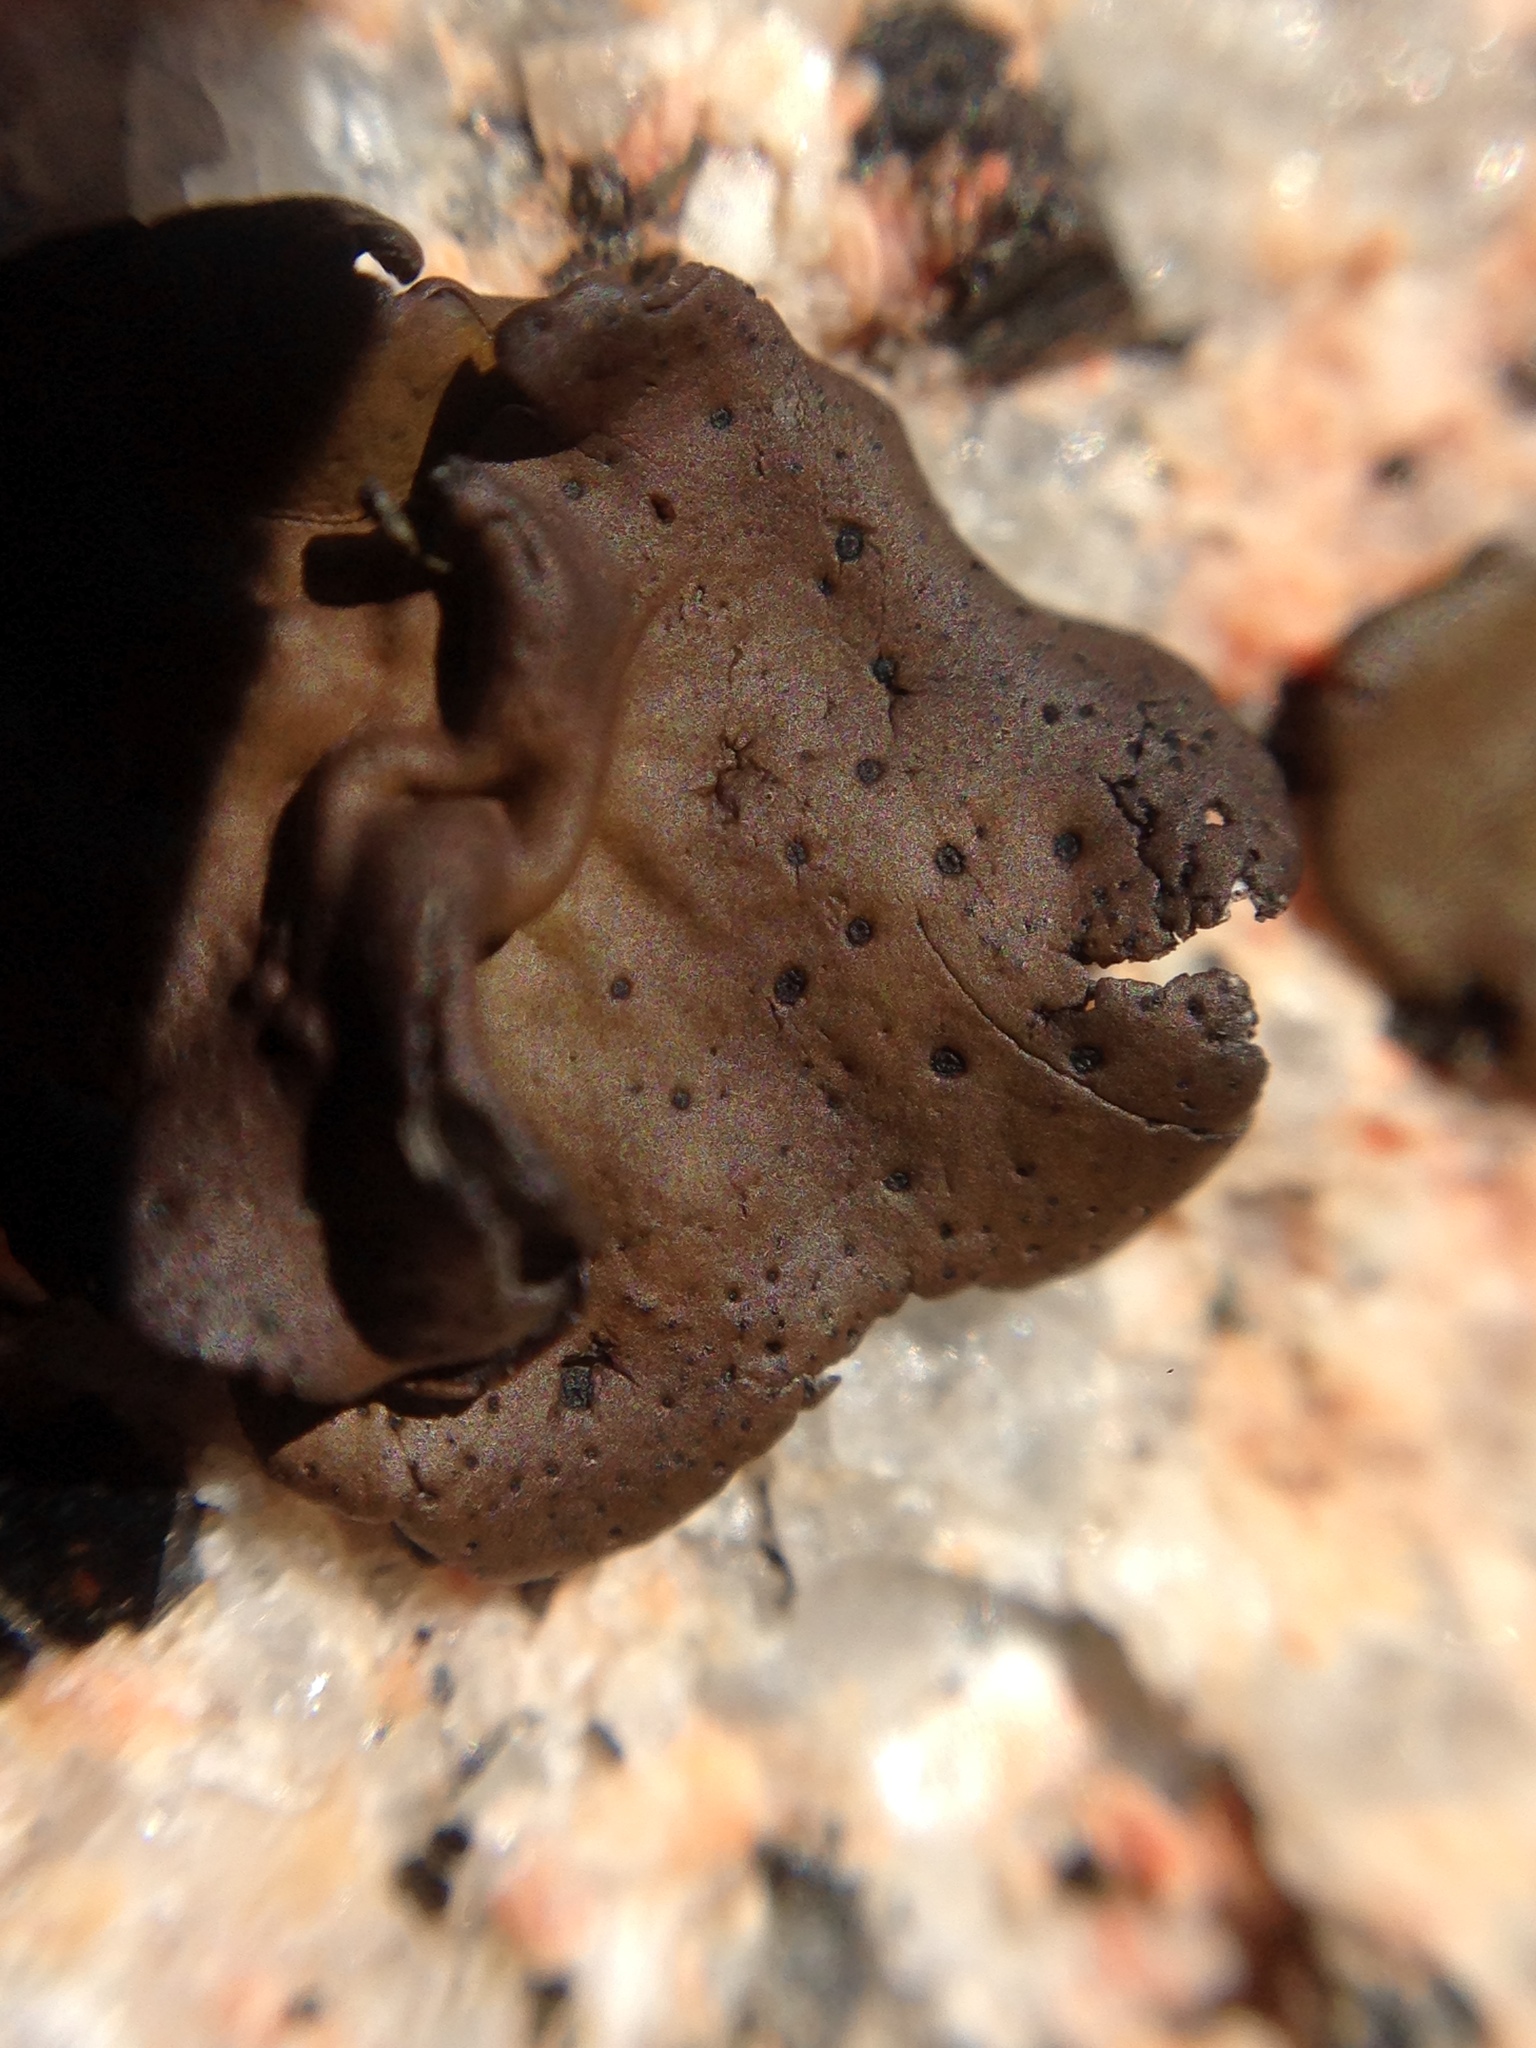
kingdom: Fungi
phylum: Ascomycota
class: Lecanoromycetes
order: Umbilicariales
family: Umbilicariaceae
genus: Umbilicaria
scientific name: Umbilicaria phaea
